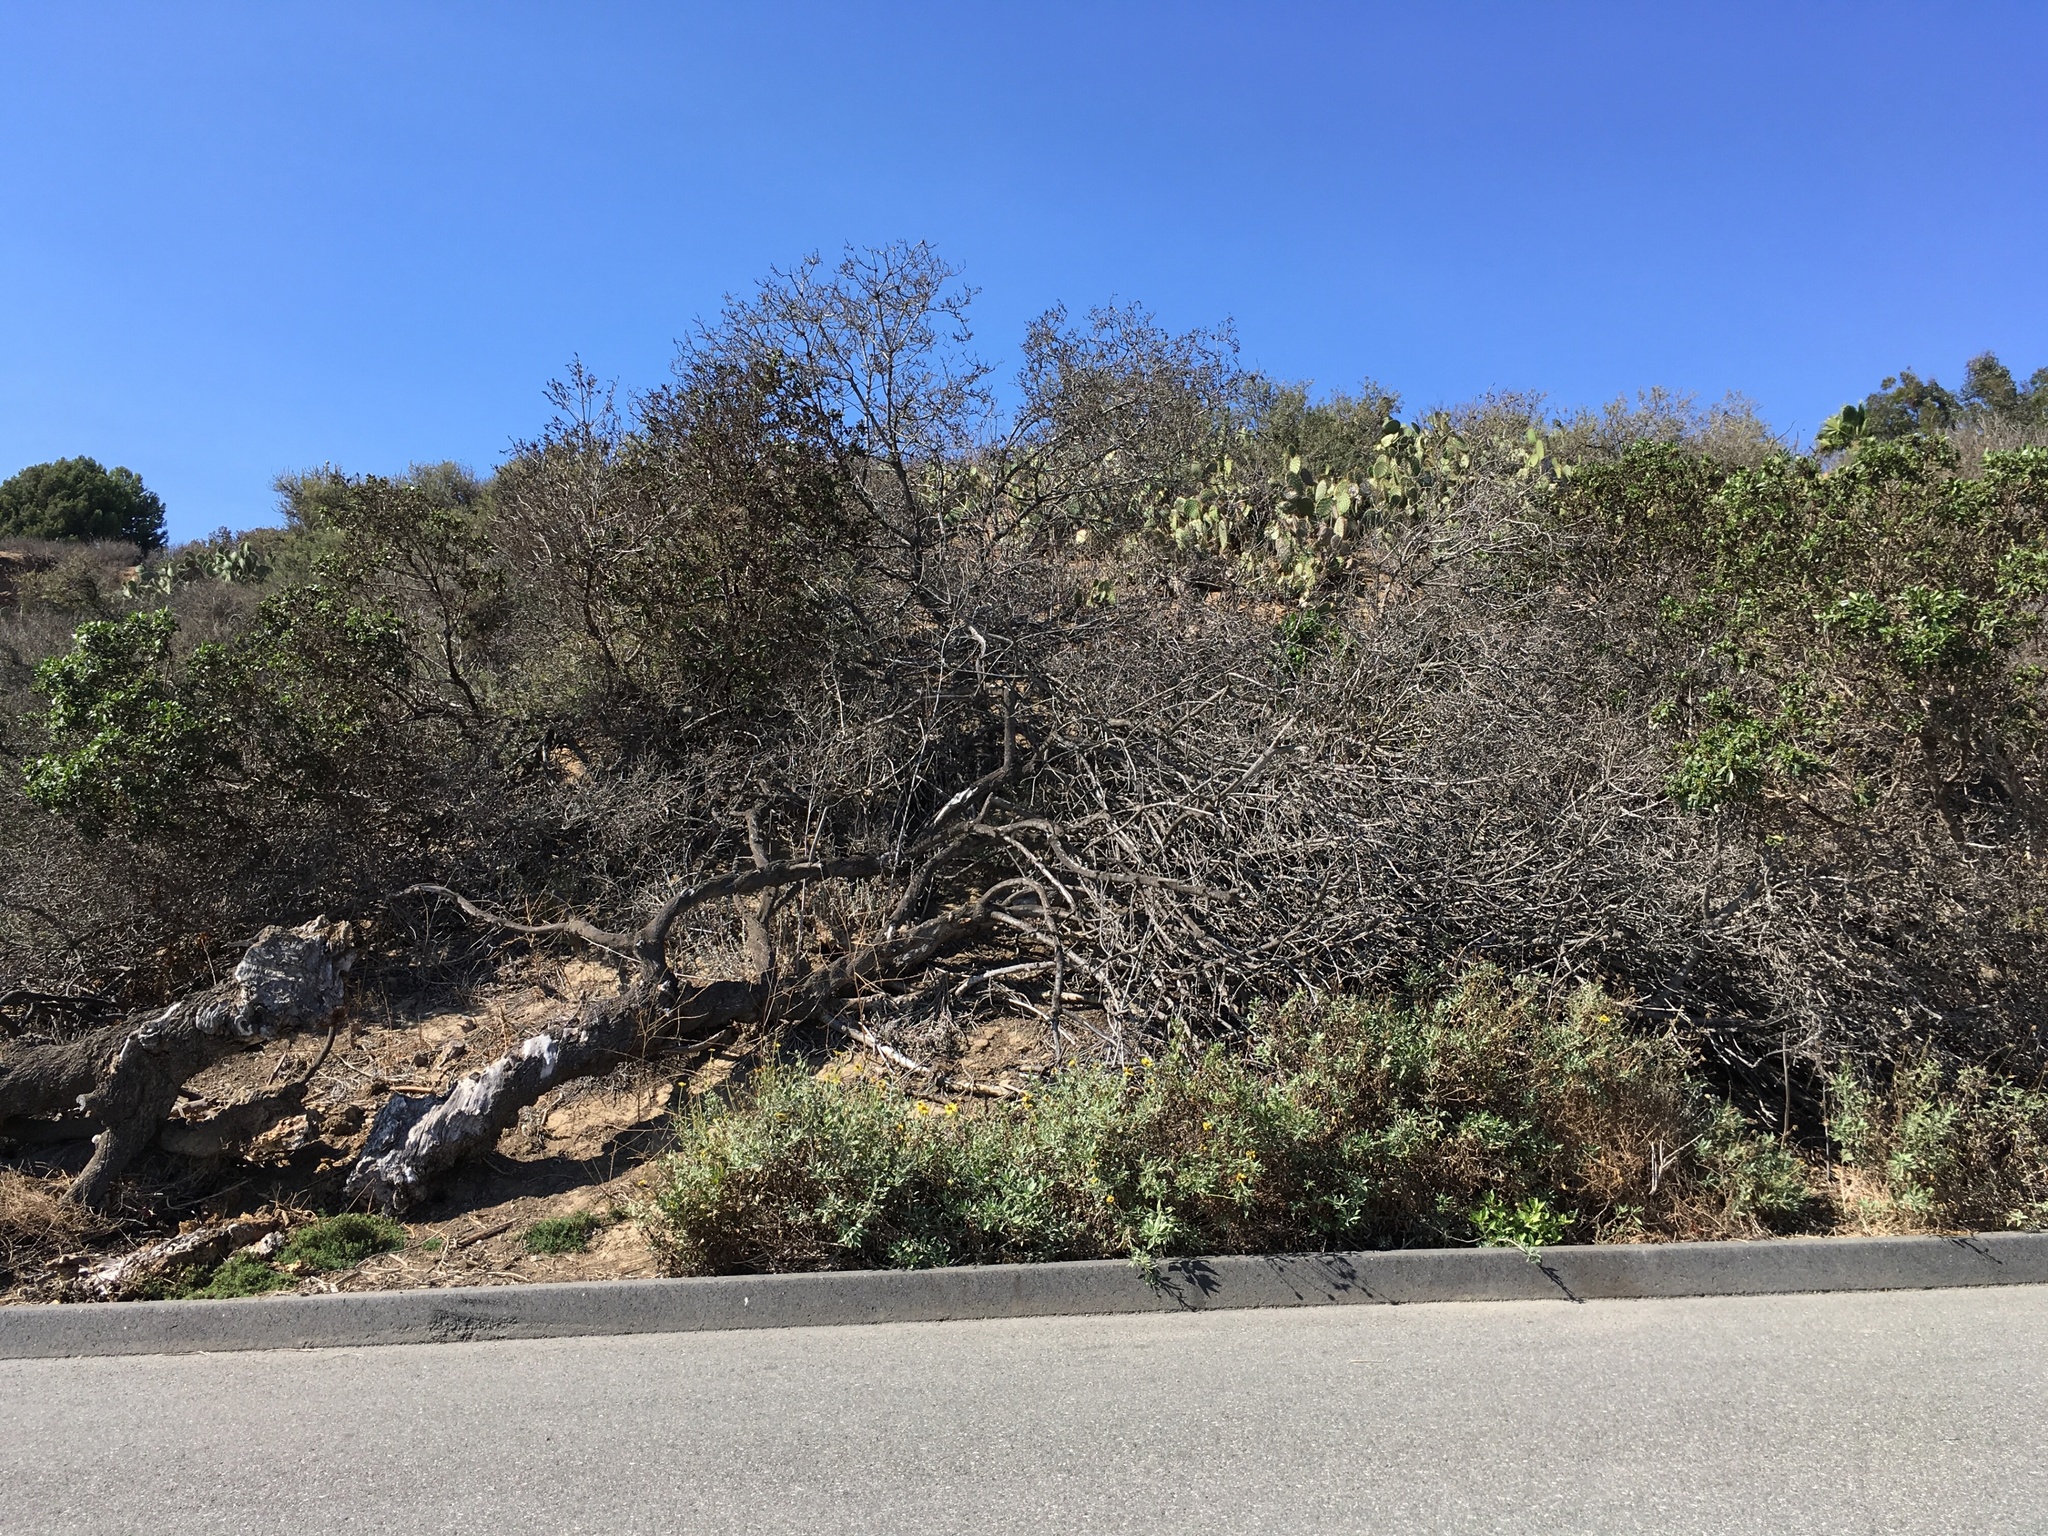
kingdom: Plantae
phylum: Tracheophyta
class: Magnoliopsida
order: Lamiales
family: Scrophulariaceae
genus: Myoporum
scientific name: Myoporum laetum
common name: Ngaio tree
